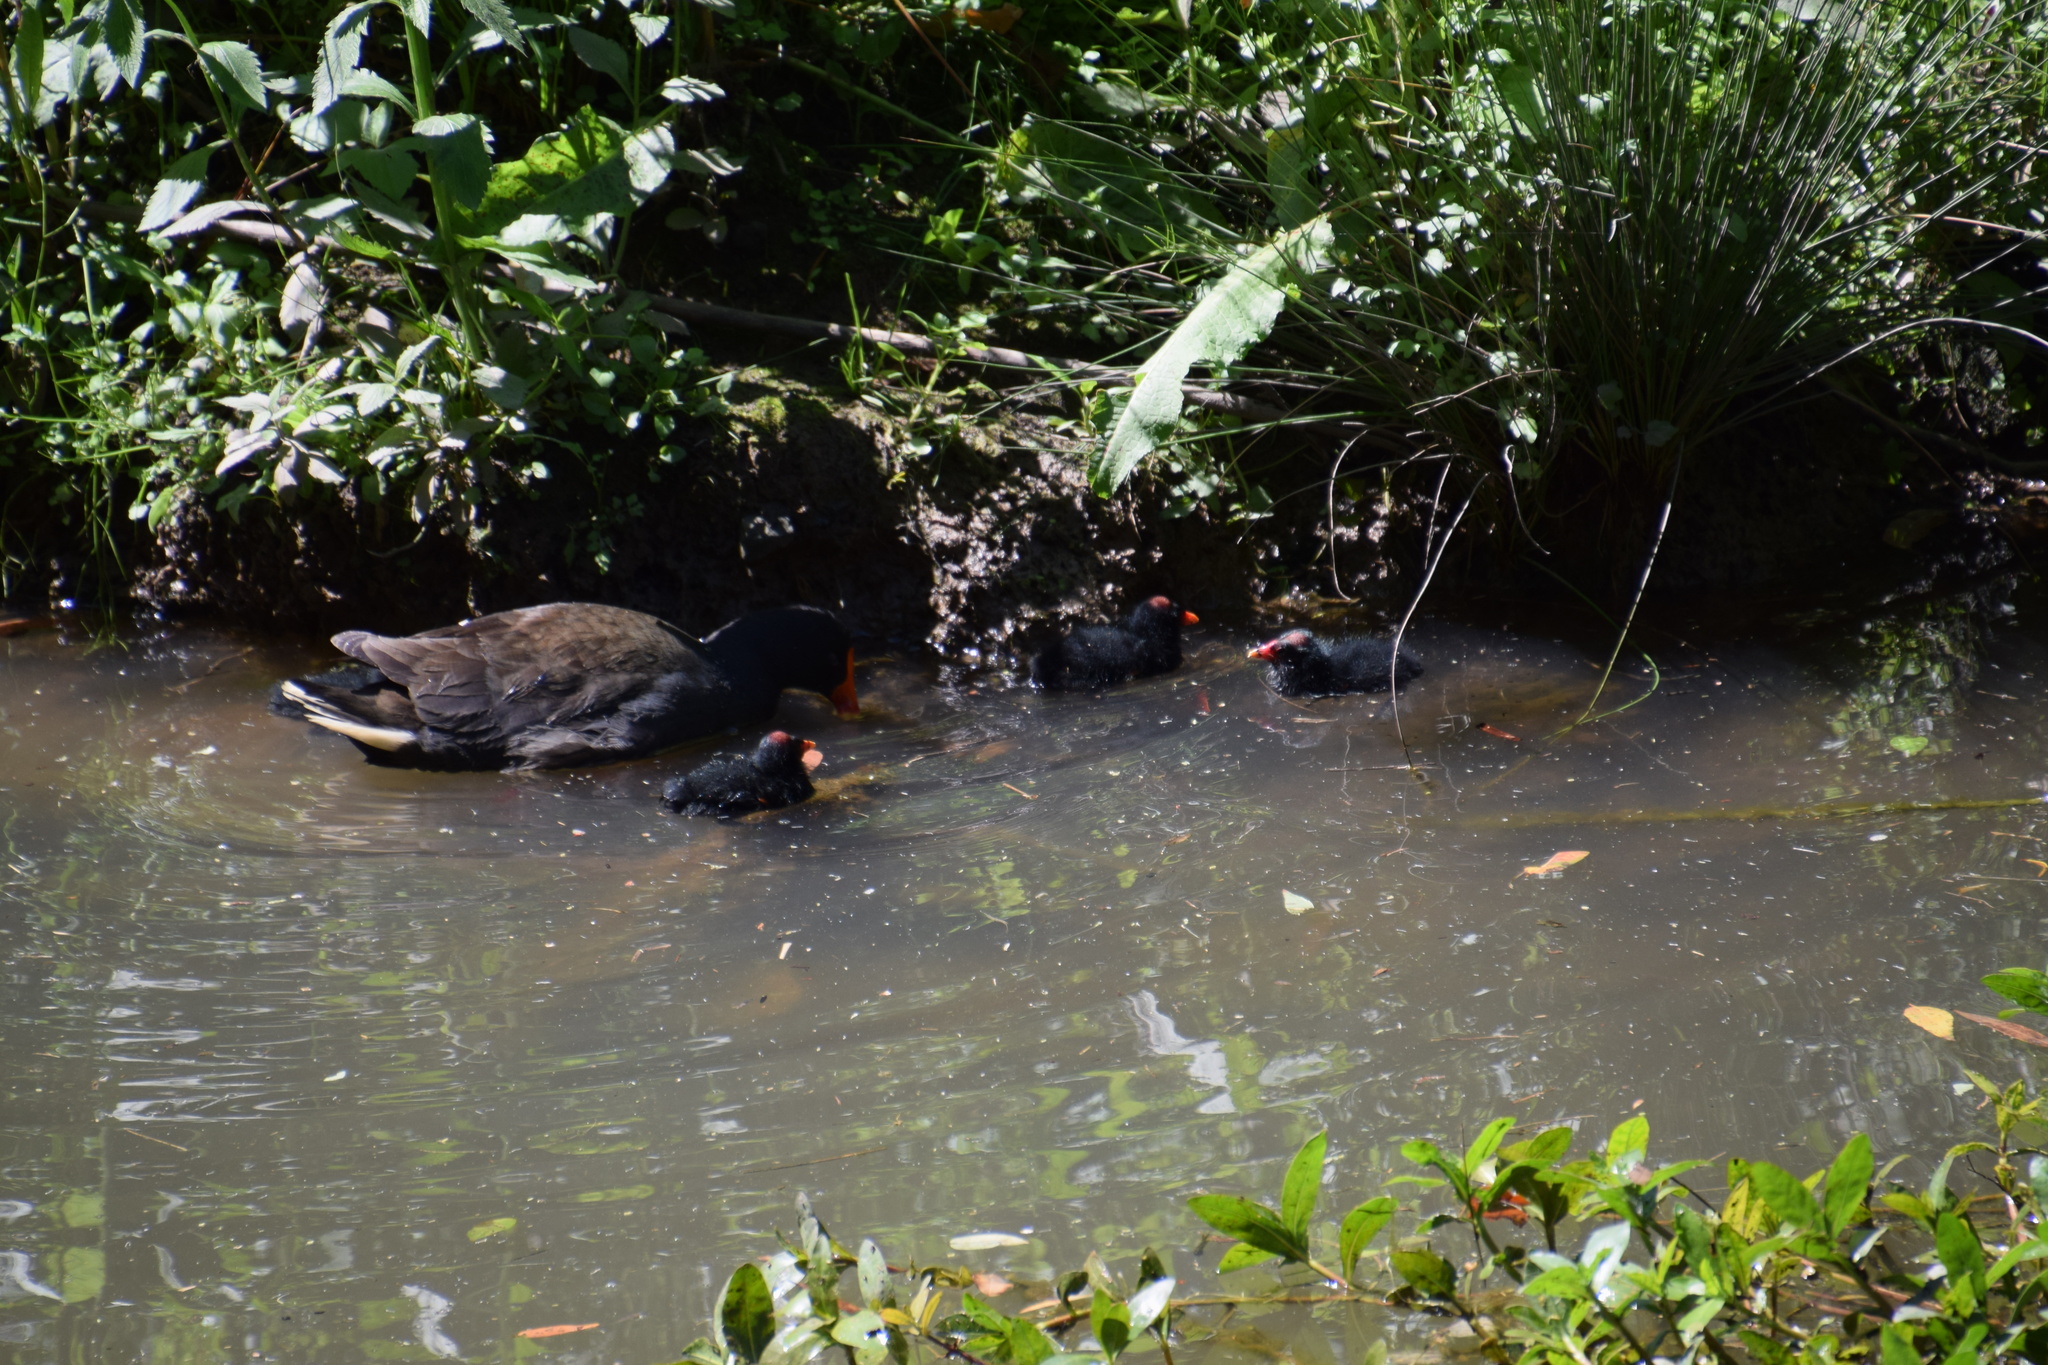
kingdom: Animalia
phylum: Chordata
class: Aves
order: Gruiformes
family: Rallidae
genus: Gallinula
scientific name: Gallinula tenebrosa
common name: Dusky moorhen
